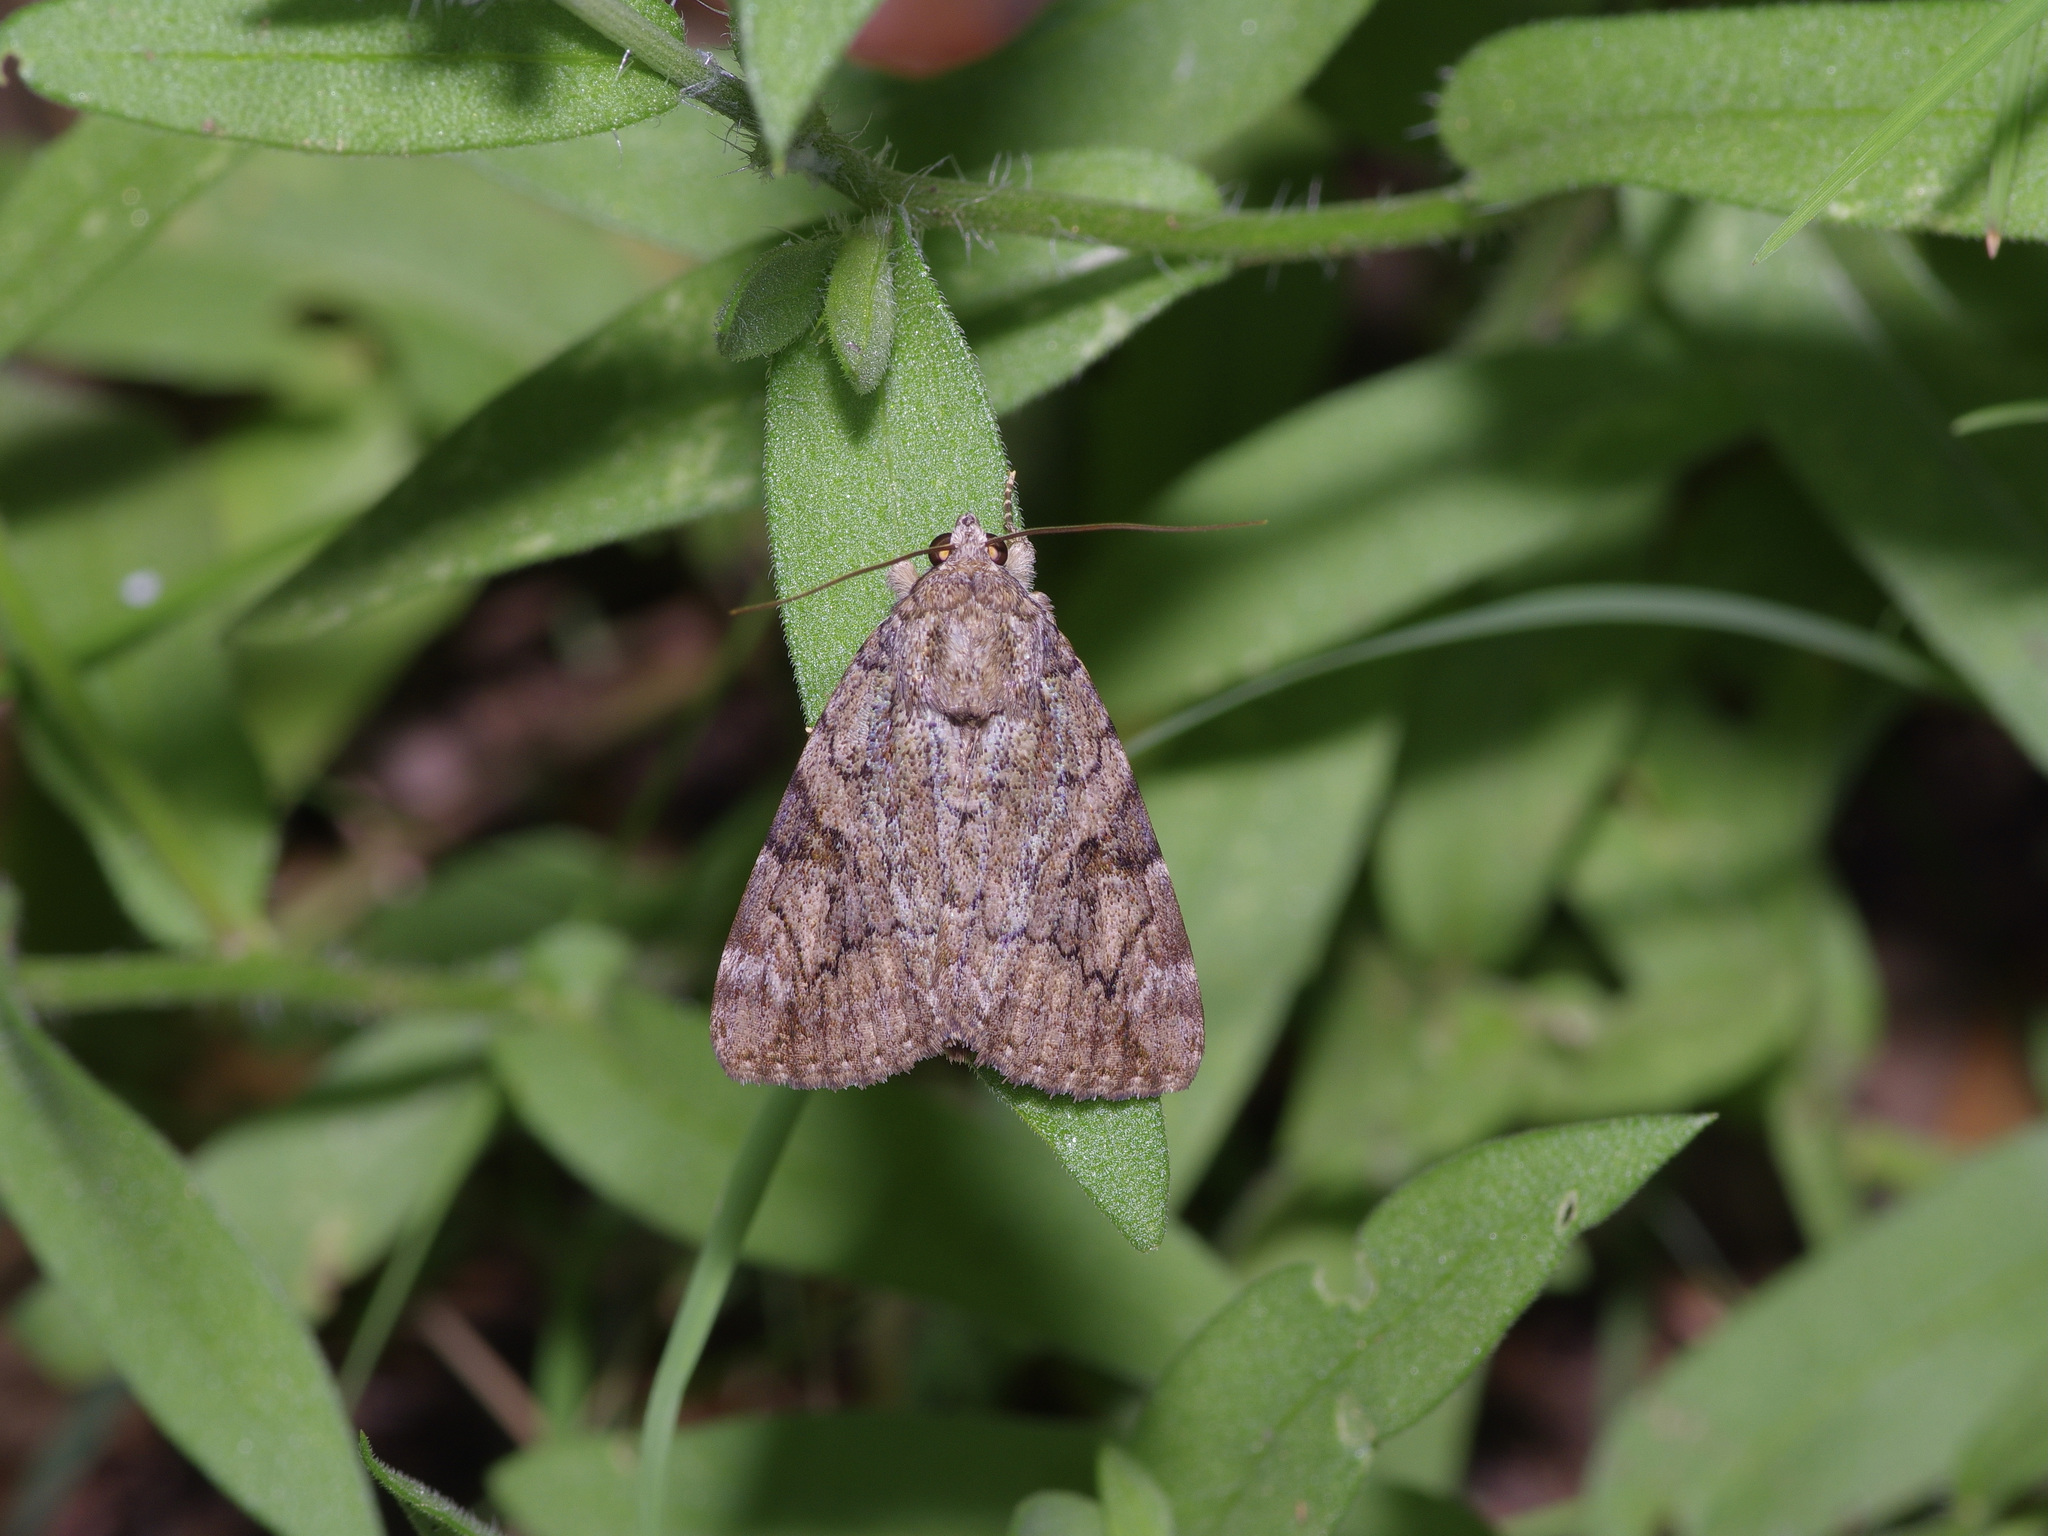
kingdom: Animalia
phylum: Arthropoda
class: Insecta
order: Lepidoptera
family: Erebidae
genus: Catocala
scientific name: Catocala micronympha
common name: Little nymph underwing
